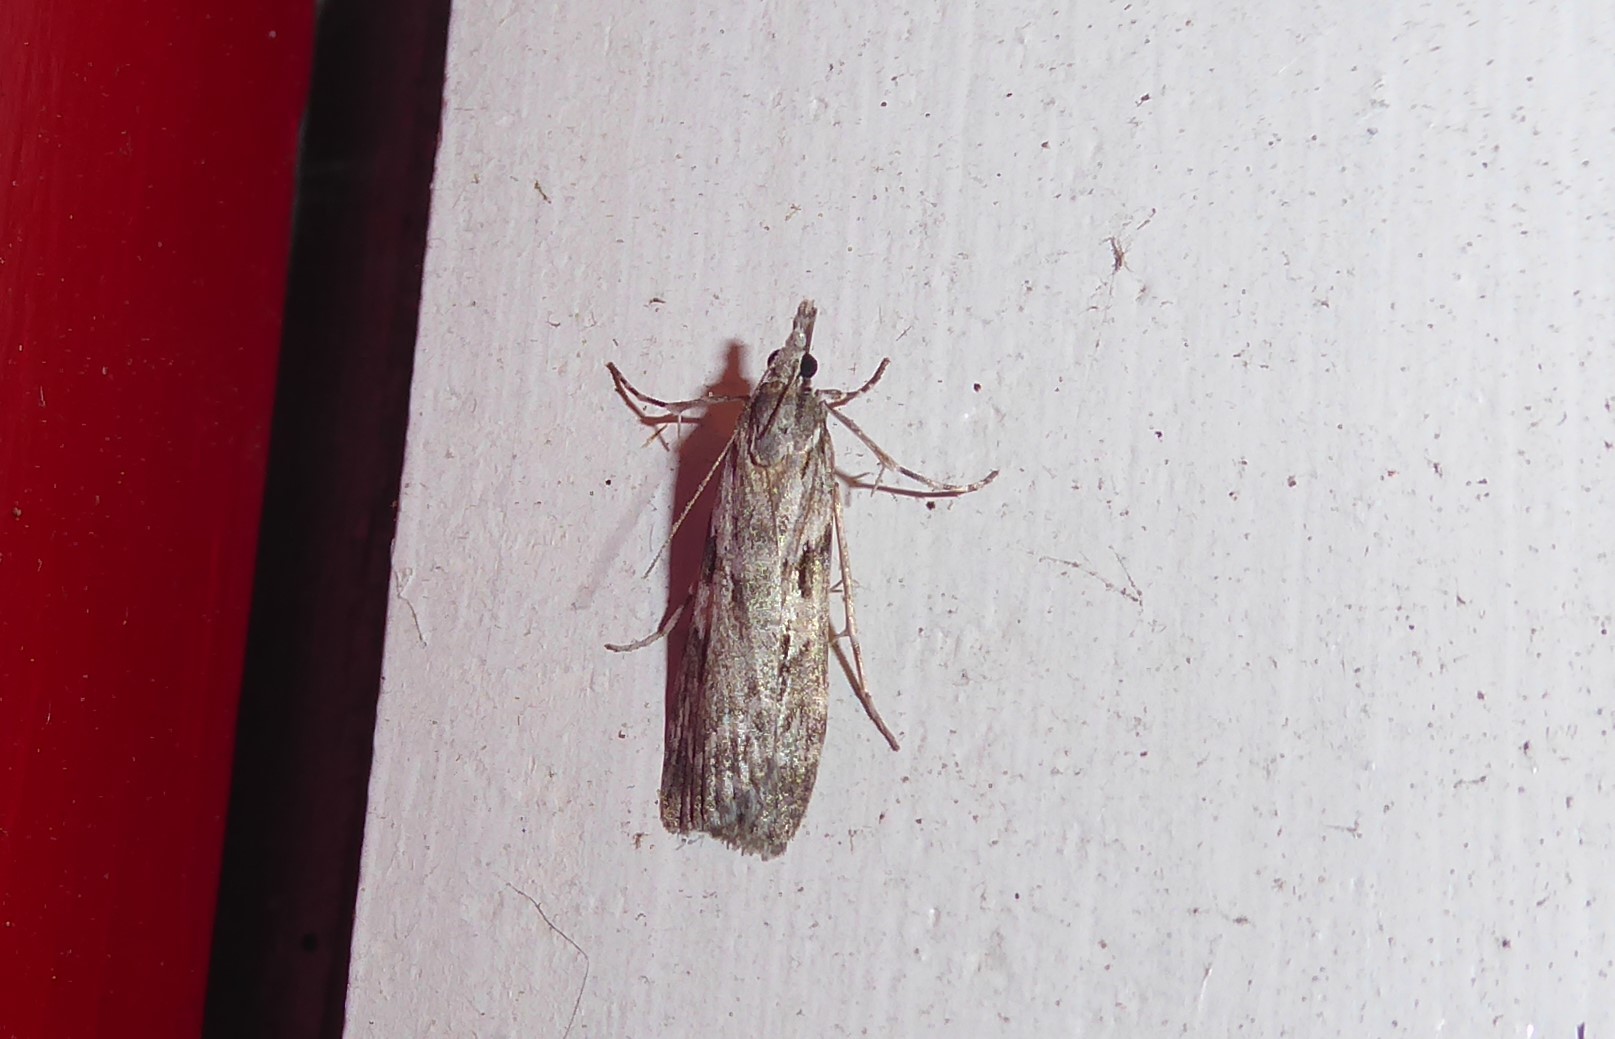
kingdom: Animalia
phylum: Arthropoda
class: Insecta
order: Lepidoptera
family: Crambidae
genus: Scoparia
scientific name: Scoparia halopis
